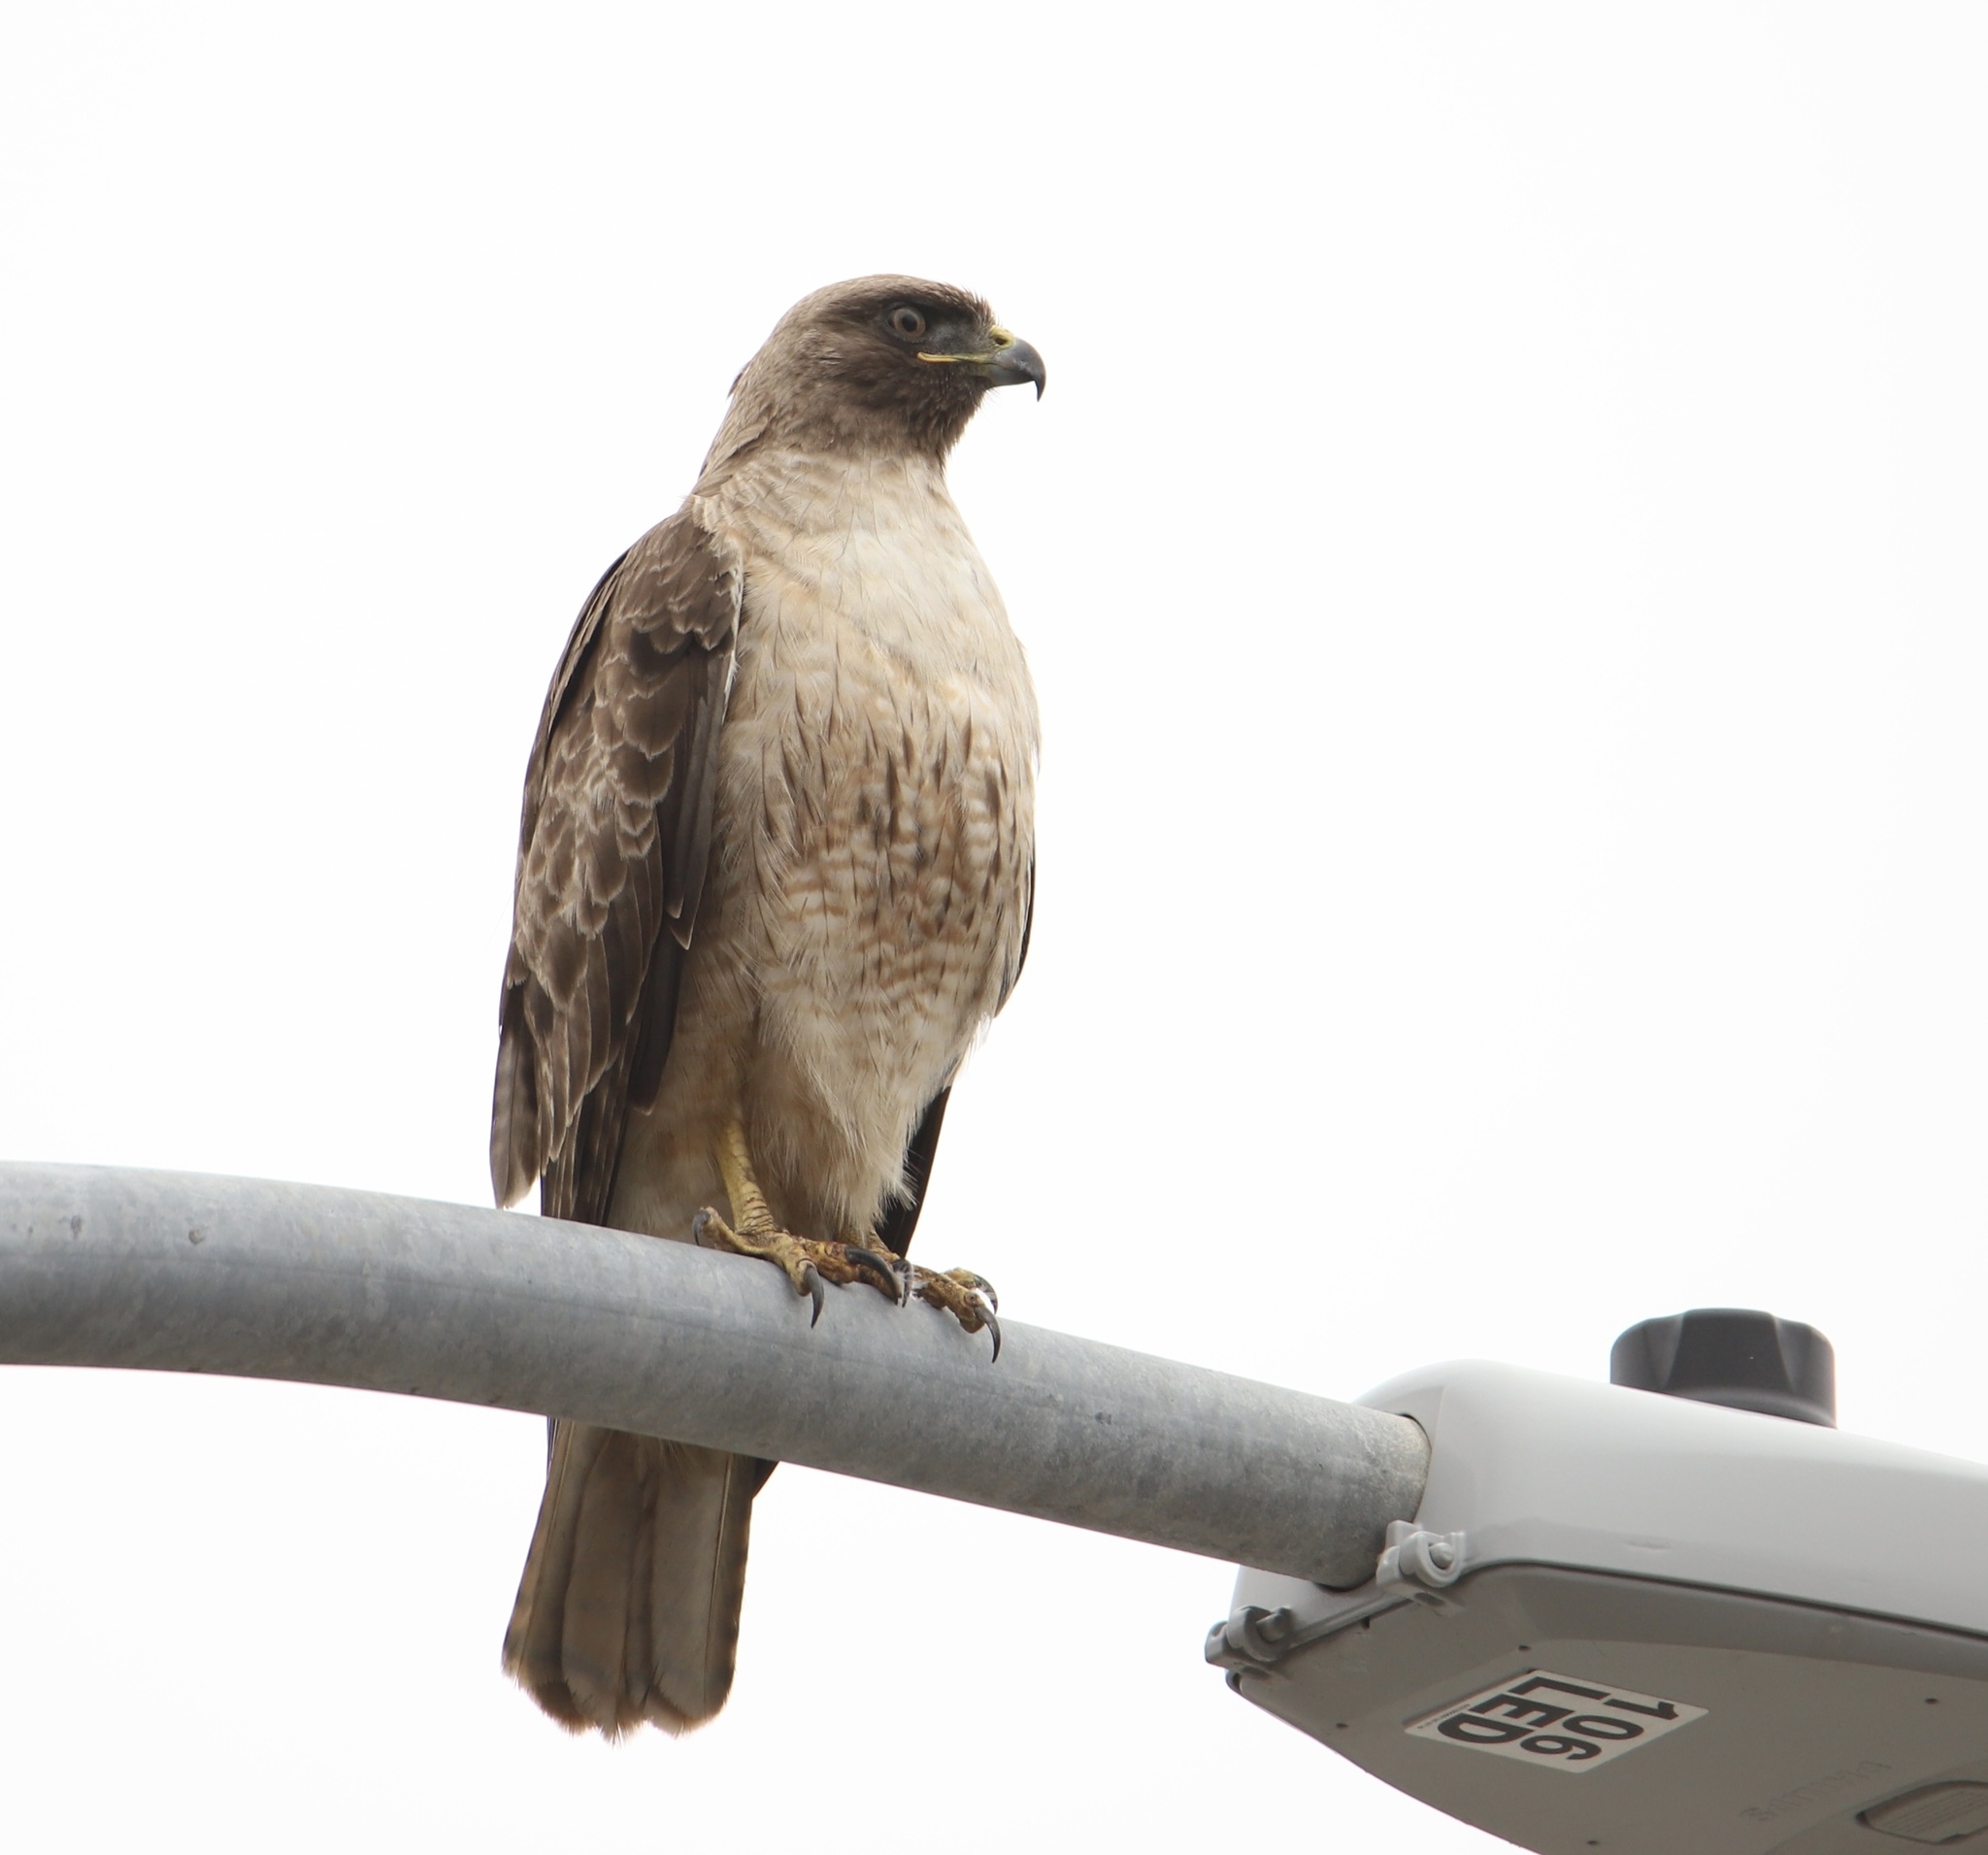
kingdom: Animalia
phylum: Chordata
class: Aves
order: Accipitriformes
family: Accipitridae
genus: Buteo
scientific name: Buteo jamaicensis
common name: Red-tailed hawk
